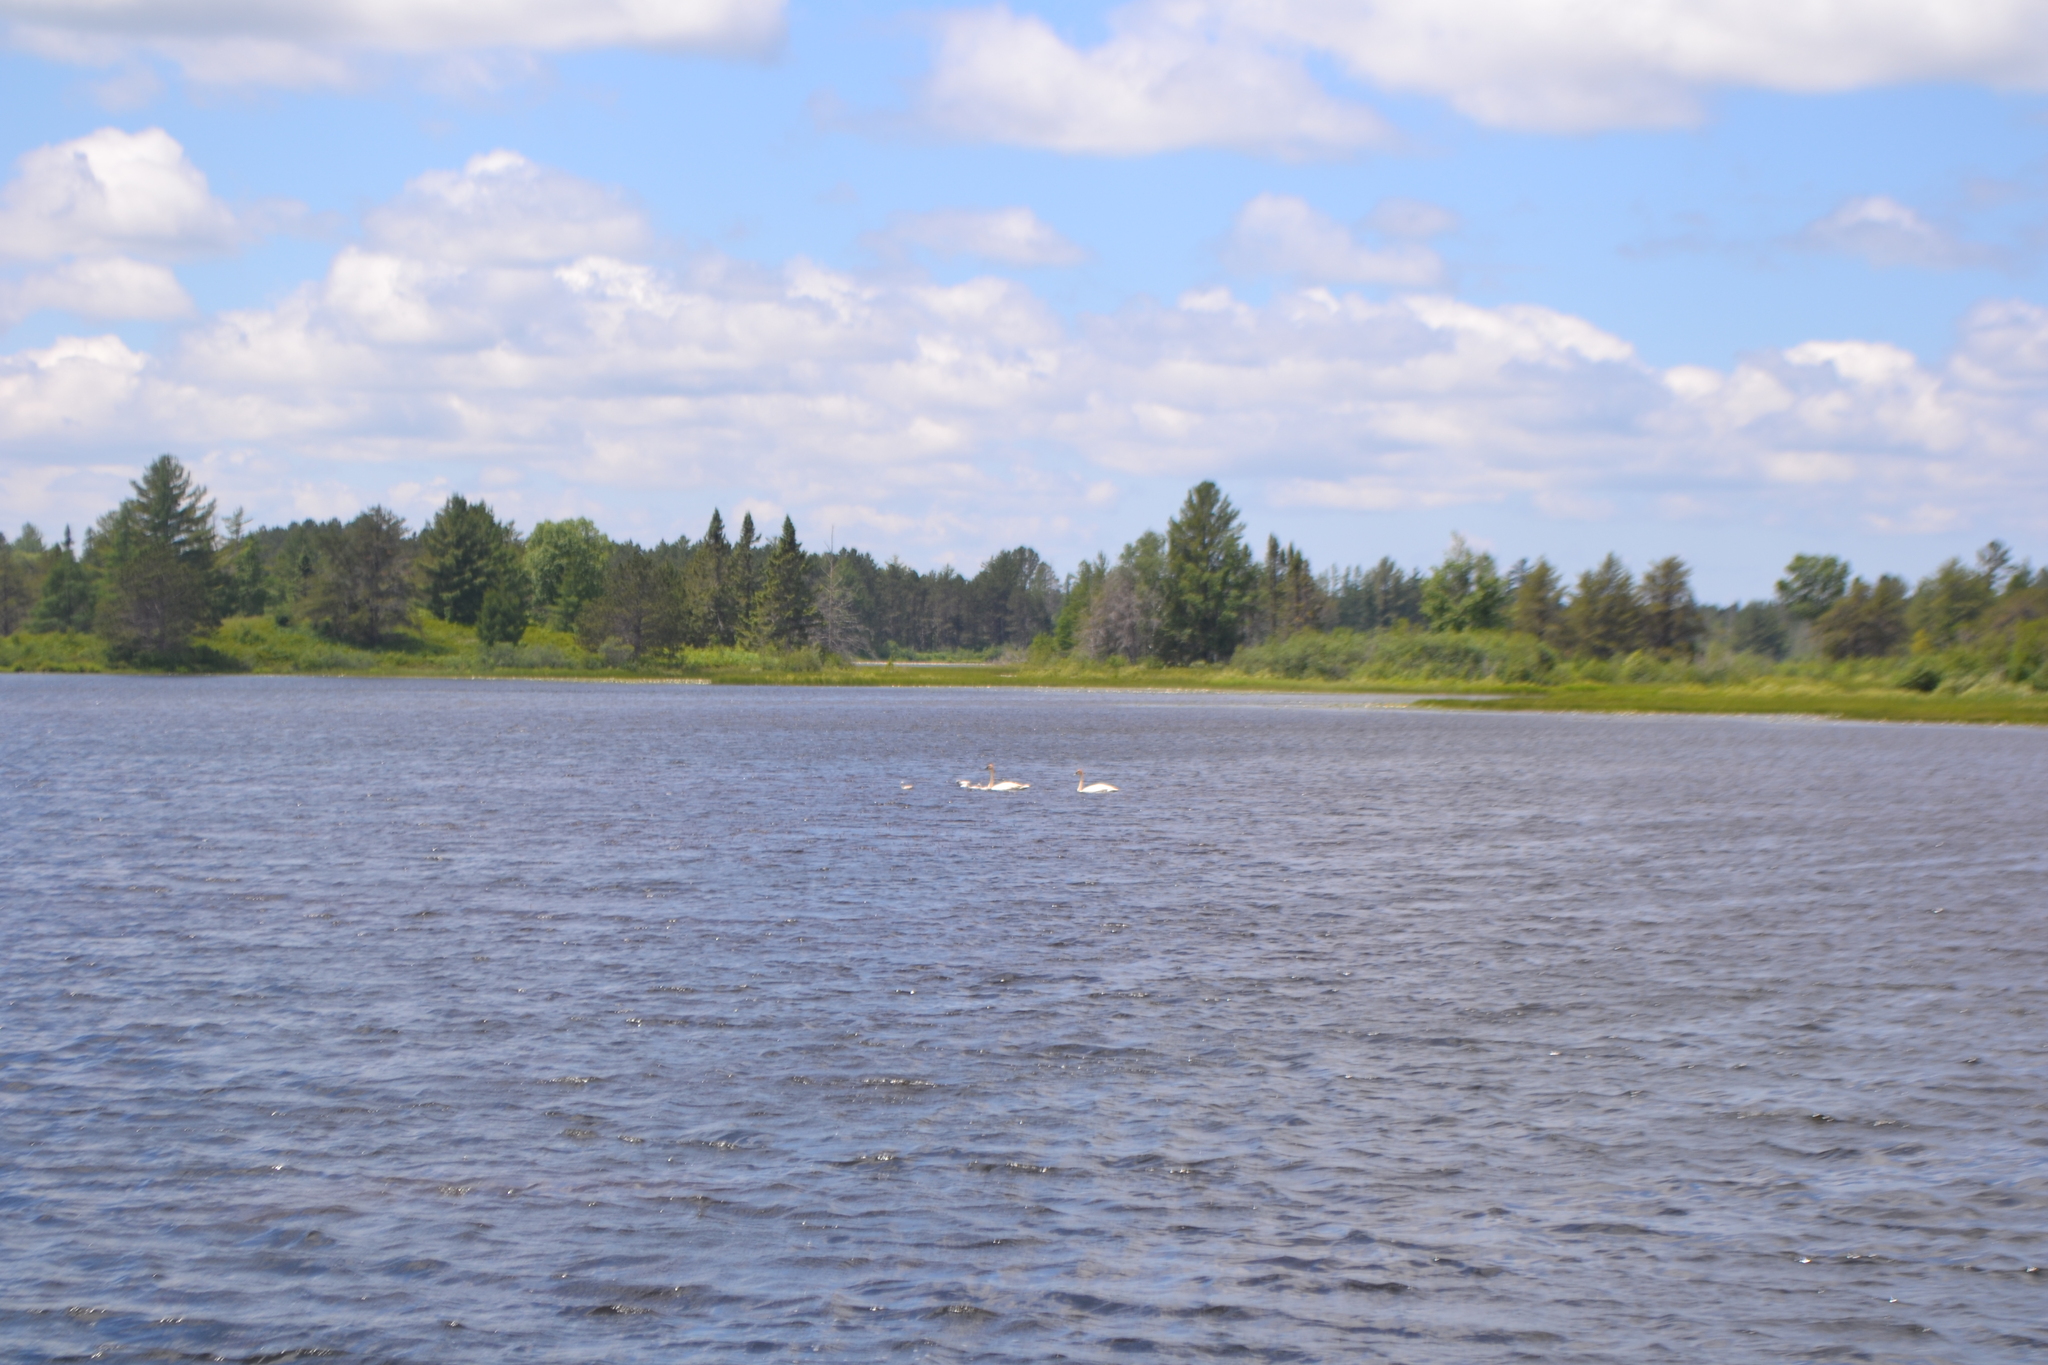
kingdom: Animalia
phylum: Chordata
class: Aves
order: Anseriformes
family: Anatidae
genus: Cygnus
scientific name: Cygnus buccinator
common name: Trumpeter swan
